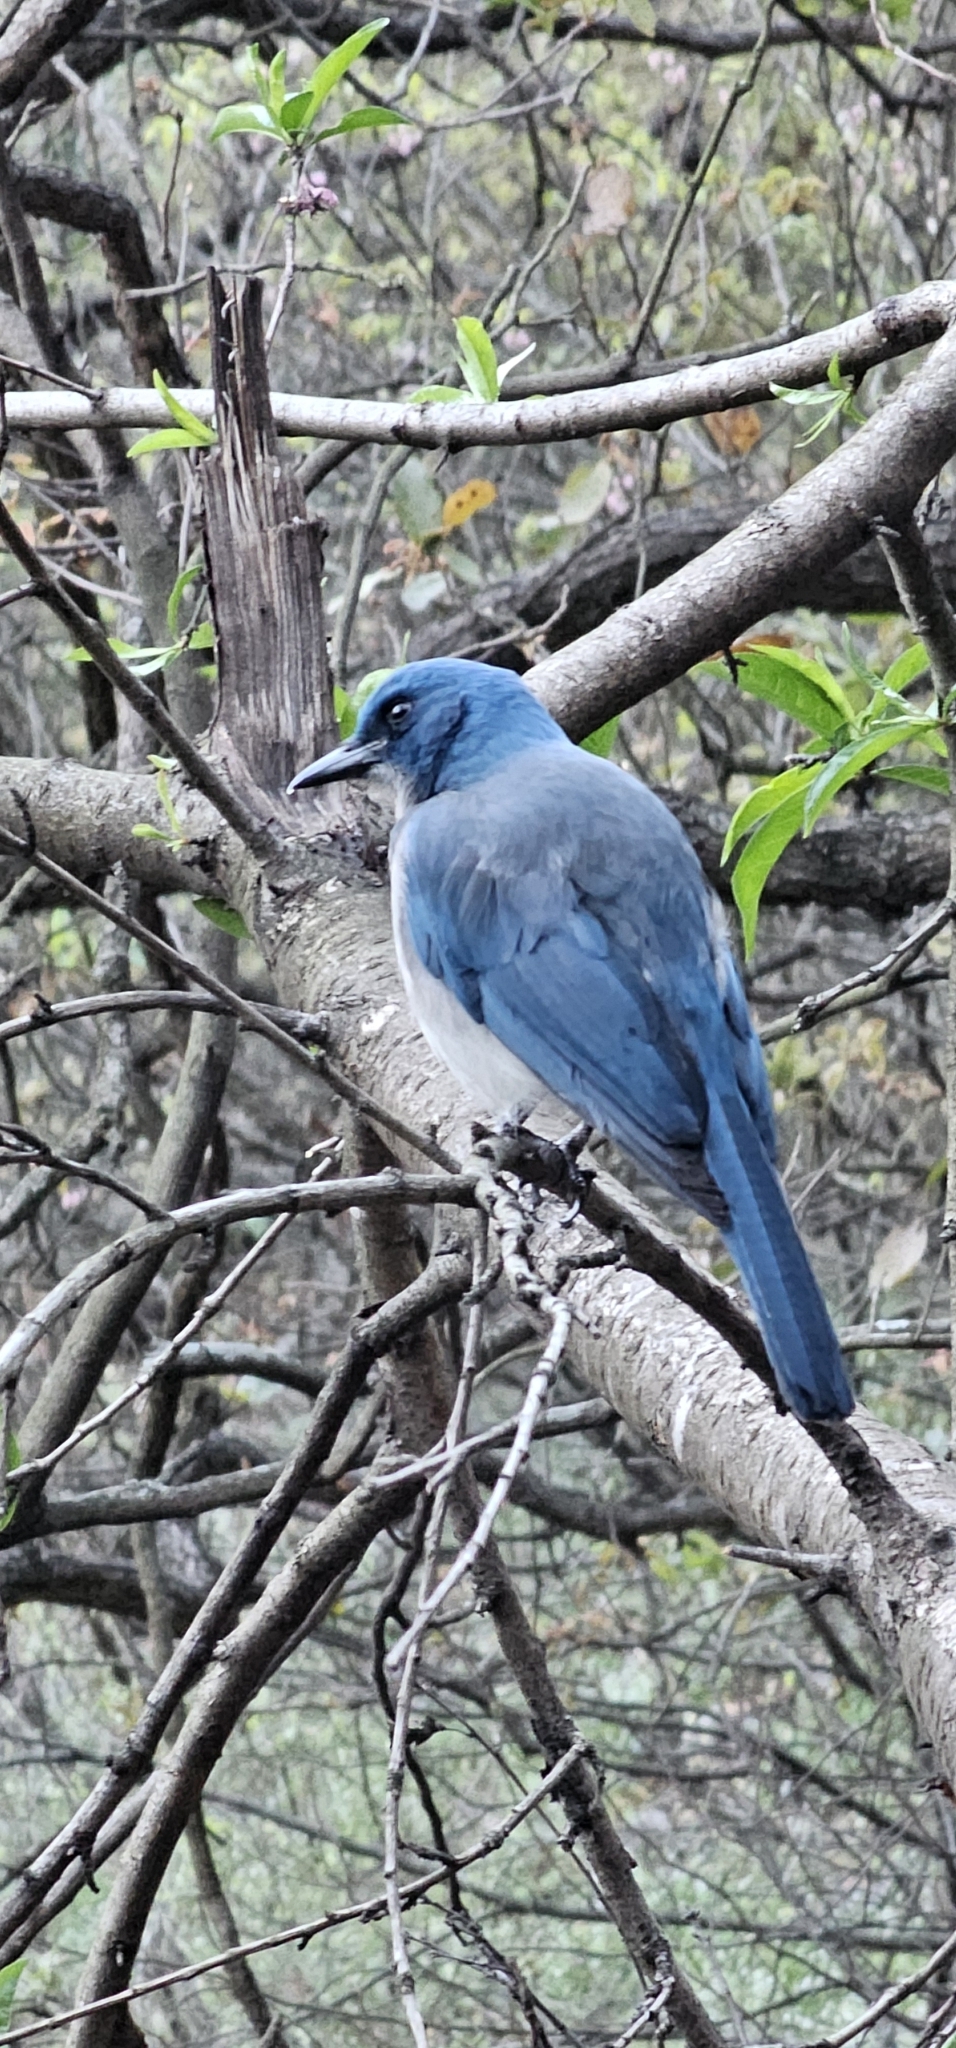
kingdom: Animalia
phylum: Chordata
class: Aves
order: Passeriformes
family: Corvidae
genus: Aphelocoma
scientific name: Aphelocoma wollweberi
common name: Mexican jay
